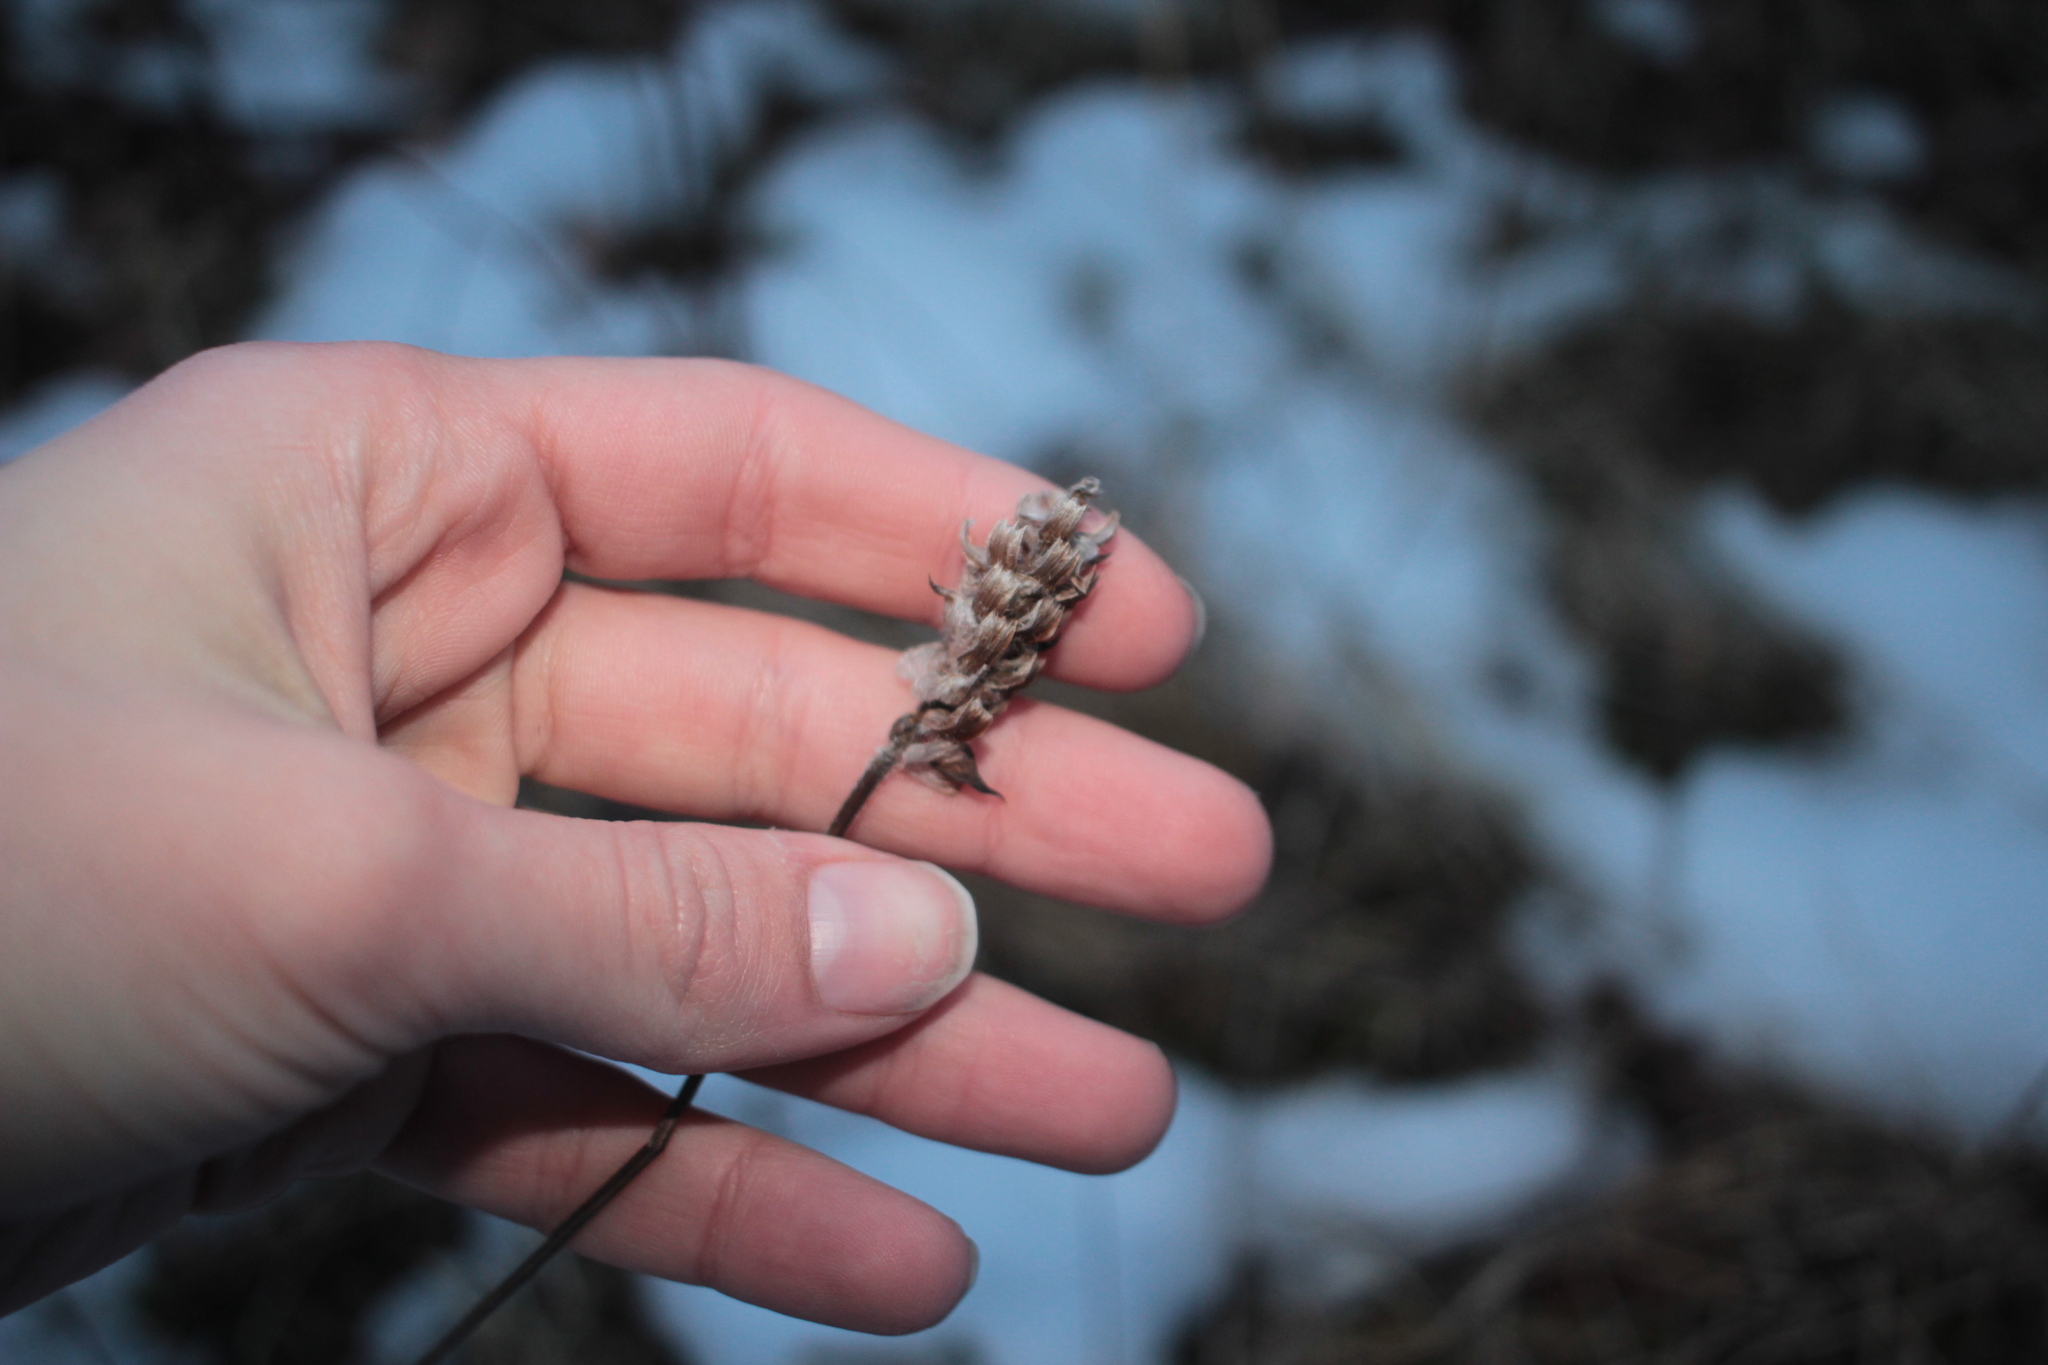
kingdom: Plantae
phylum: Tracheophyta
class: Magnoliopsida
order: Lamiales
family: Lamiaceae
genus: Prunella
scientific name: Prunella vulgaris
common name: Heal-all
